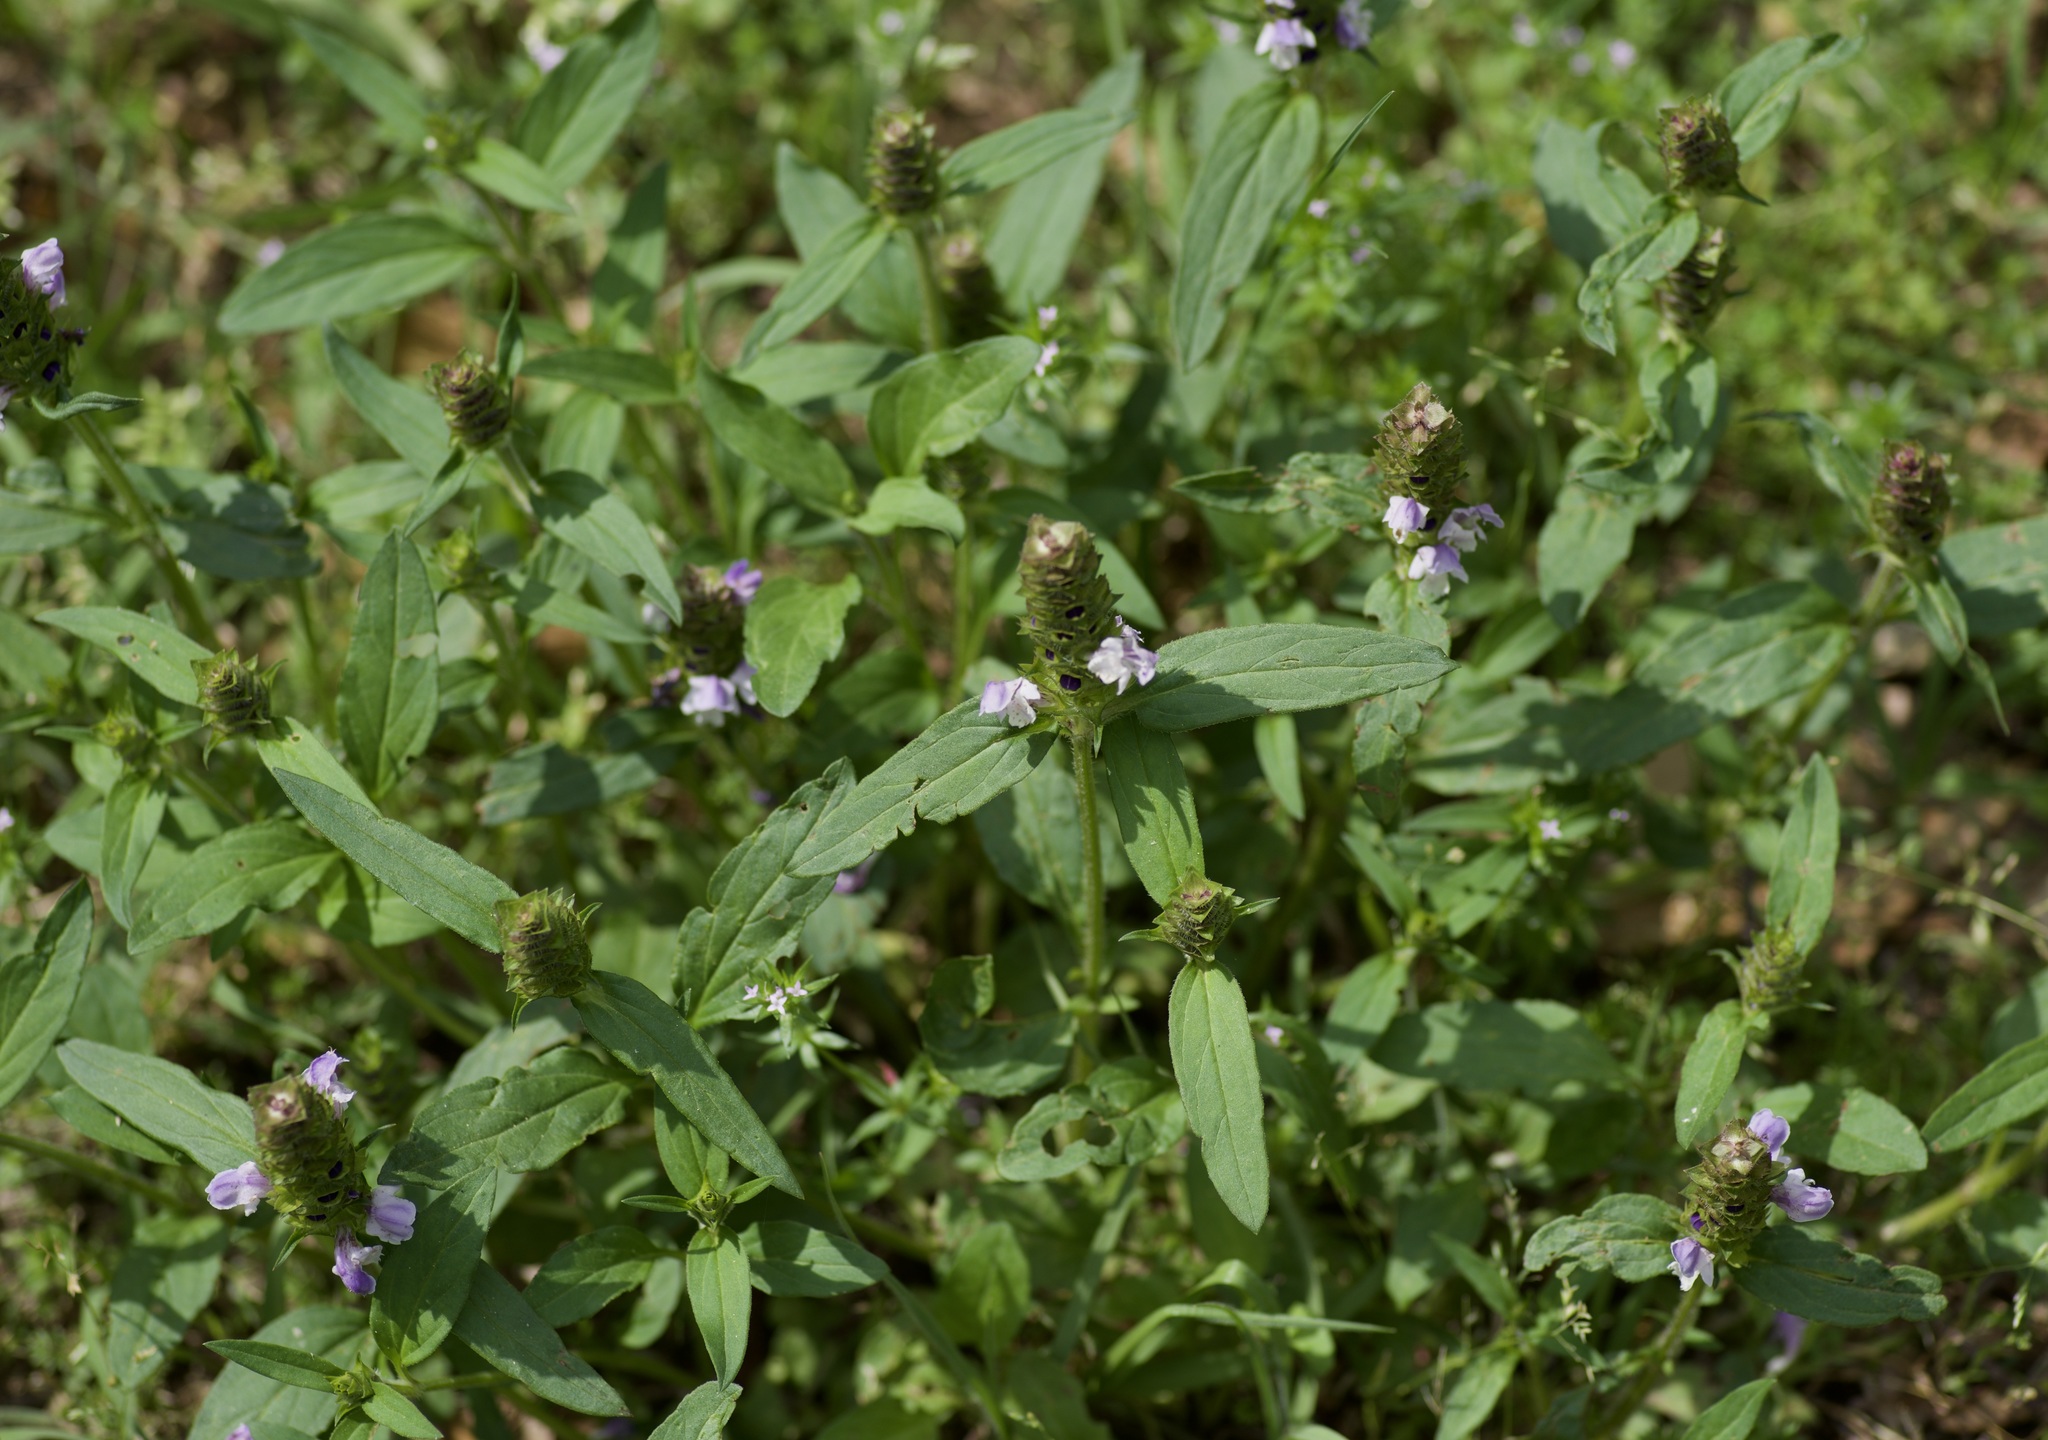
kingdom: Plantae
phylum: Tracheophyta
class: Magnoliopsida
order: Lamiales
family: Lamiaceae
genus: Prunella
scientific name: Prunella vulgaris
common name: Heal-all
